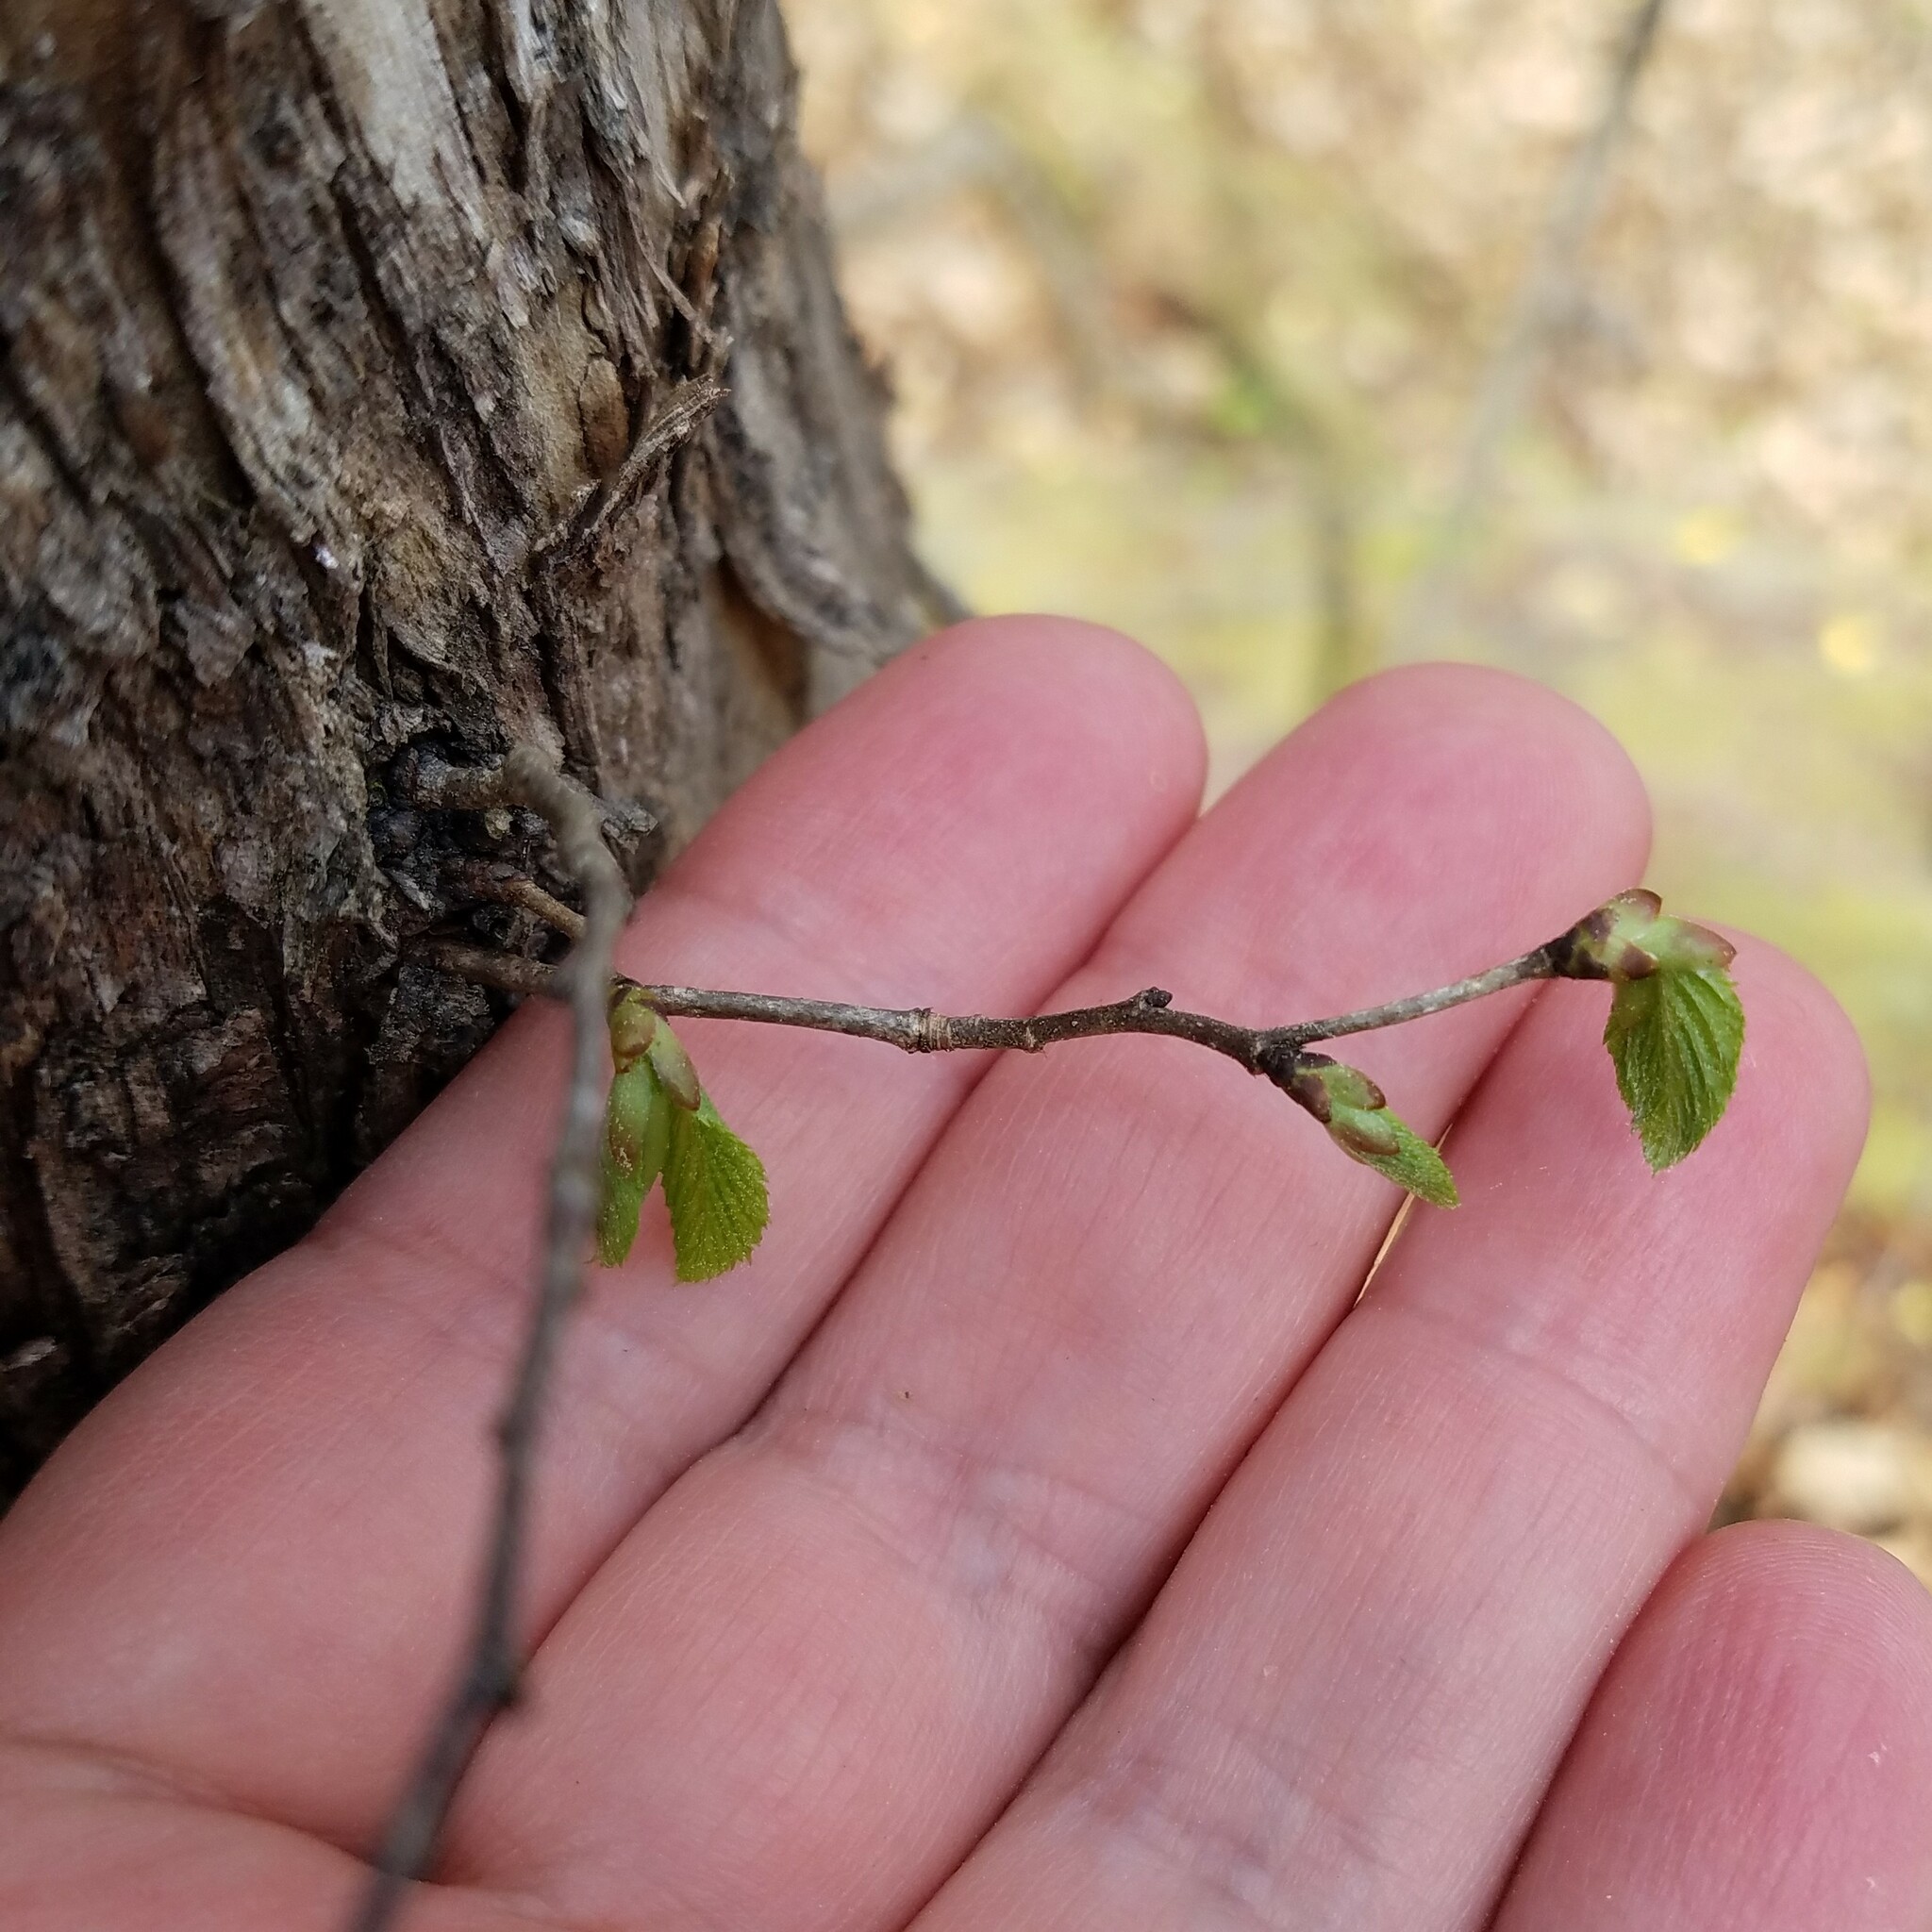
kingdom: Plantae
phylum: Tracheophyta
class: Magnoliopsida
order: Fagales
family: Betulaceae
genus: Ostrya
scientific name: Ostrya virginiana
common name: Ironwood
